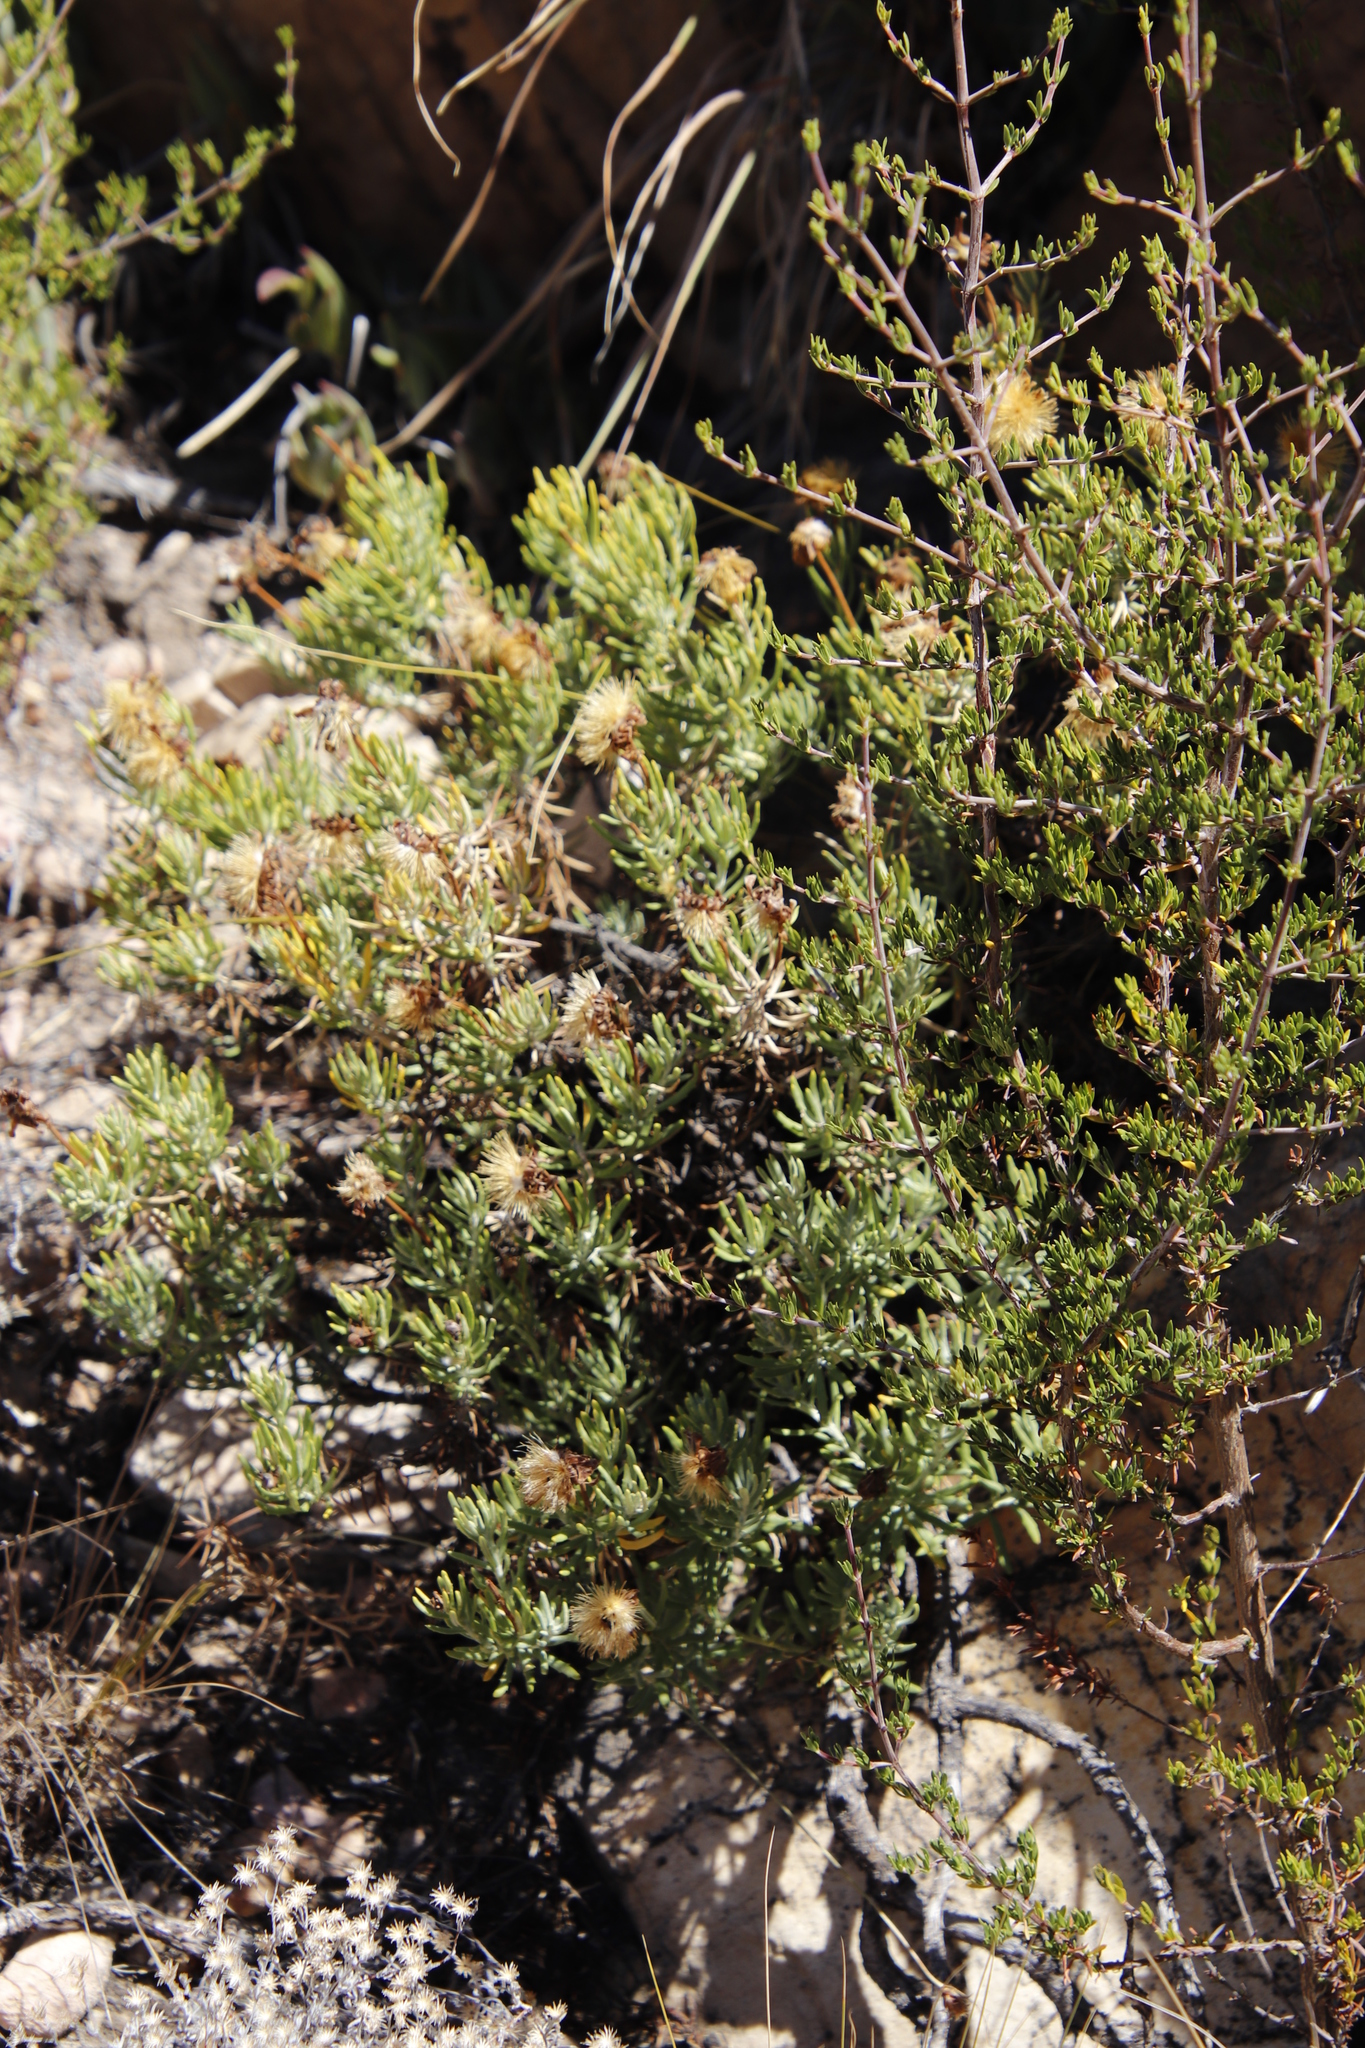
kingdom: Plantae
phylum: Tracheophyta
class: Magnoliopsida
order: Asterales
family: Asteraceae
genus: Heterolepis
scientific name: Heterolepis aliena
